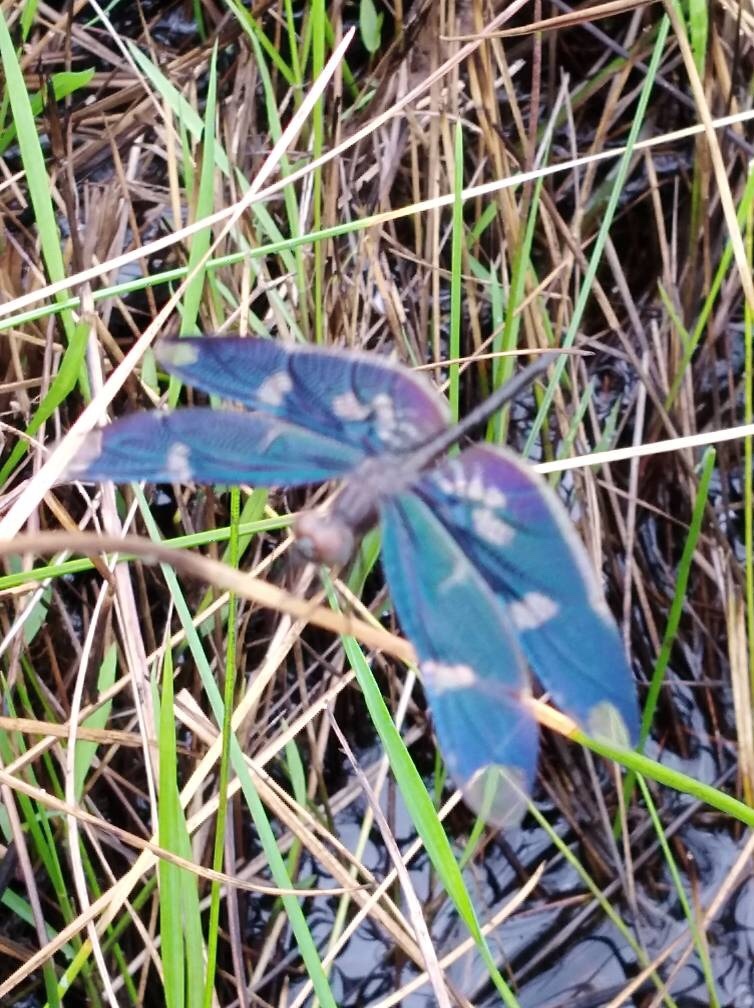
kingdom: Animalia
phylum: Arthropoda
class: Insecta
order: Odonata
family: Libellulidae
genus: Rhyothemis
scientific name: Rhyothemis fenestrina
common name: Skylight flutterer
